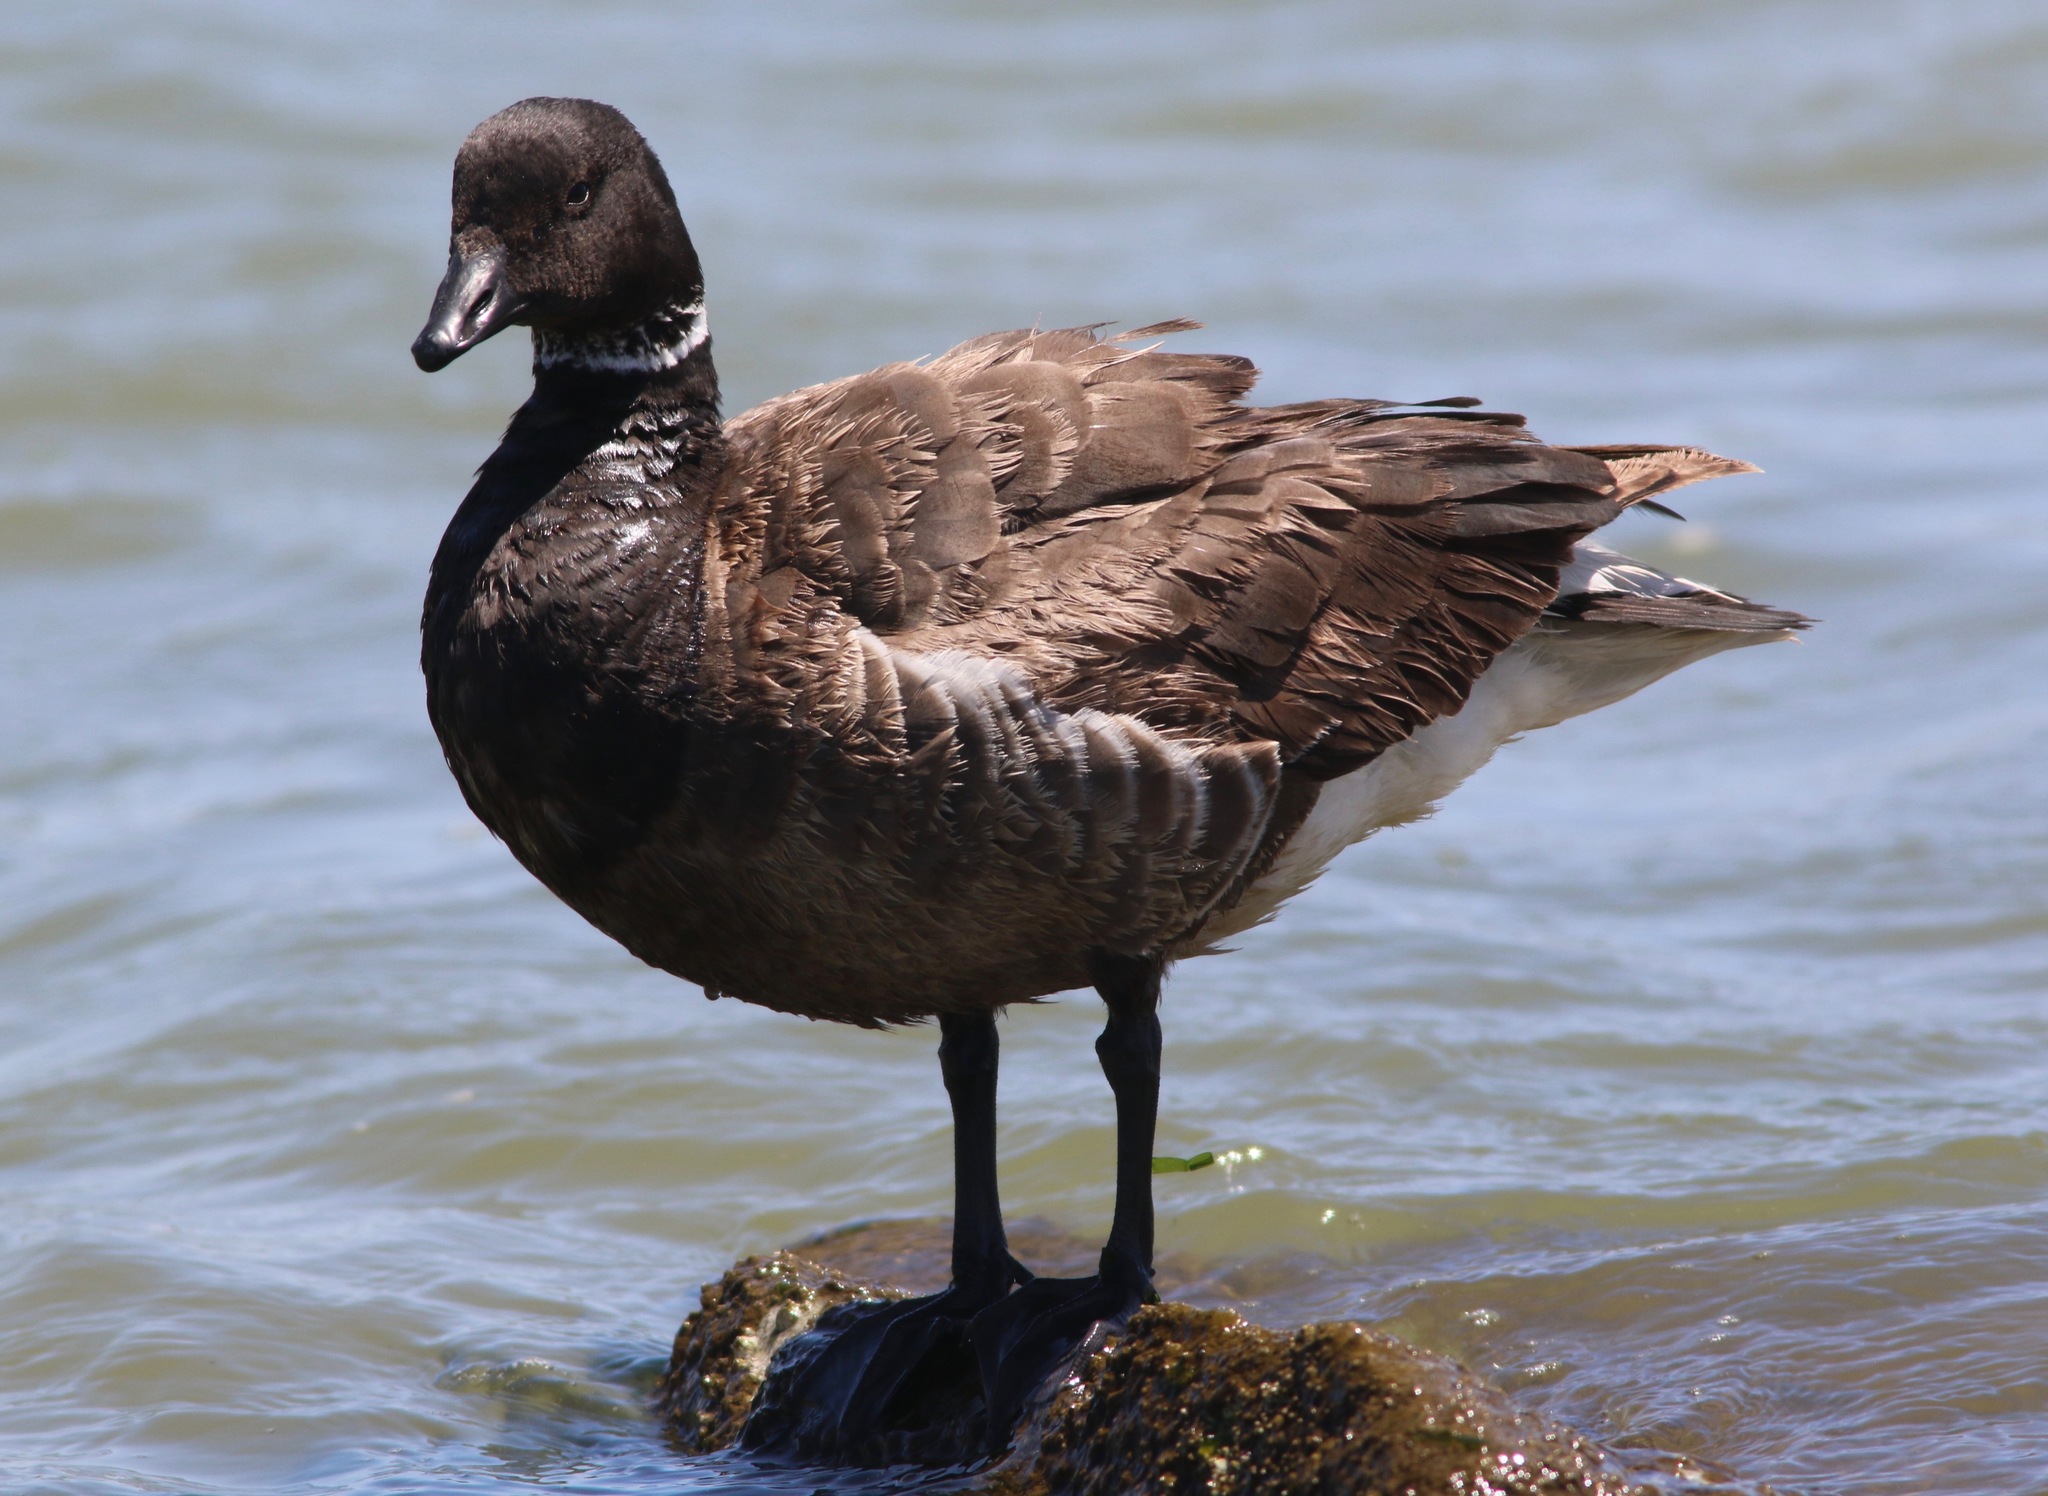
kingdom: Animalia
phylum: Chordata
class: Aves
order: Anseriformes
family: Anatidae
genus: Branta
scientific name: Branta bernicla
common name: Brant goose
